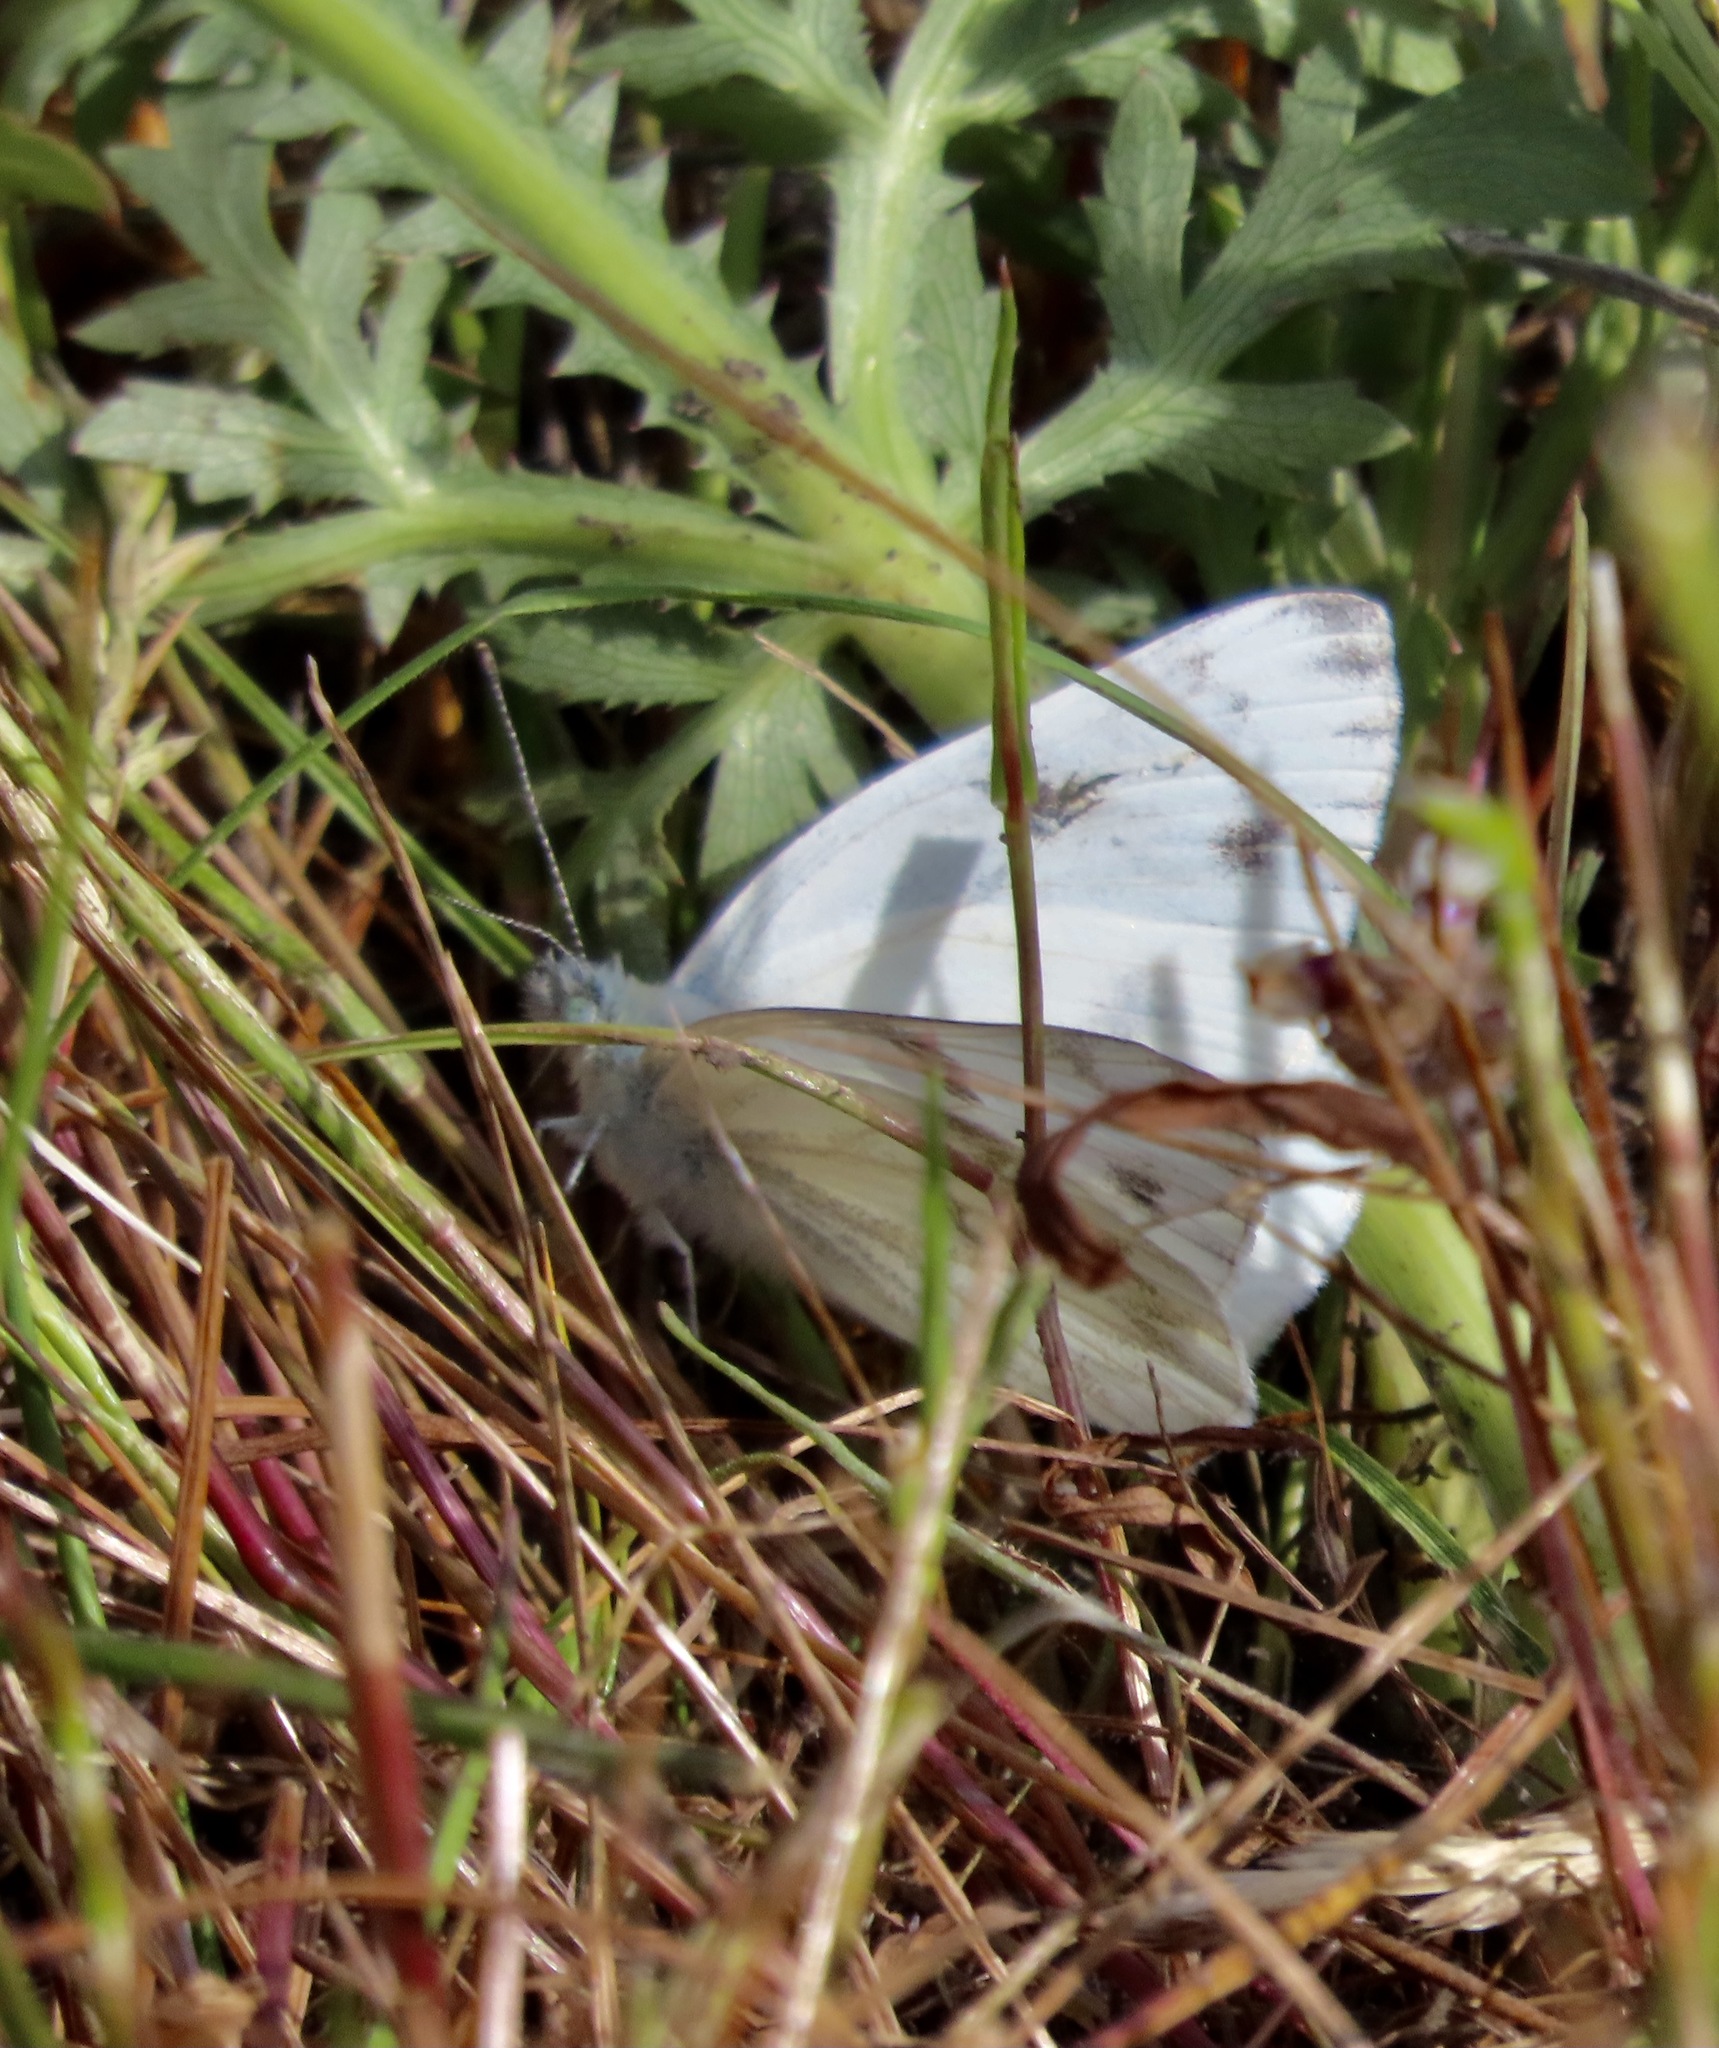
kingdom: Animalia
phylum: Arthropoda
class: Insecta
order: Lepidoptera
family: Pieridae
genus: Pontia
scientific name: Pontia protodice
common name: Checkered white
